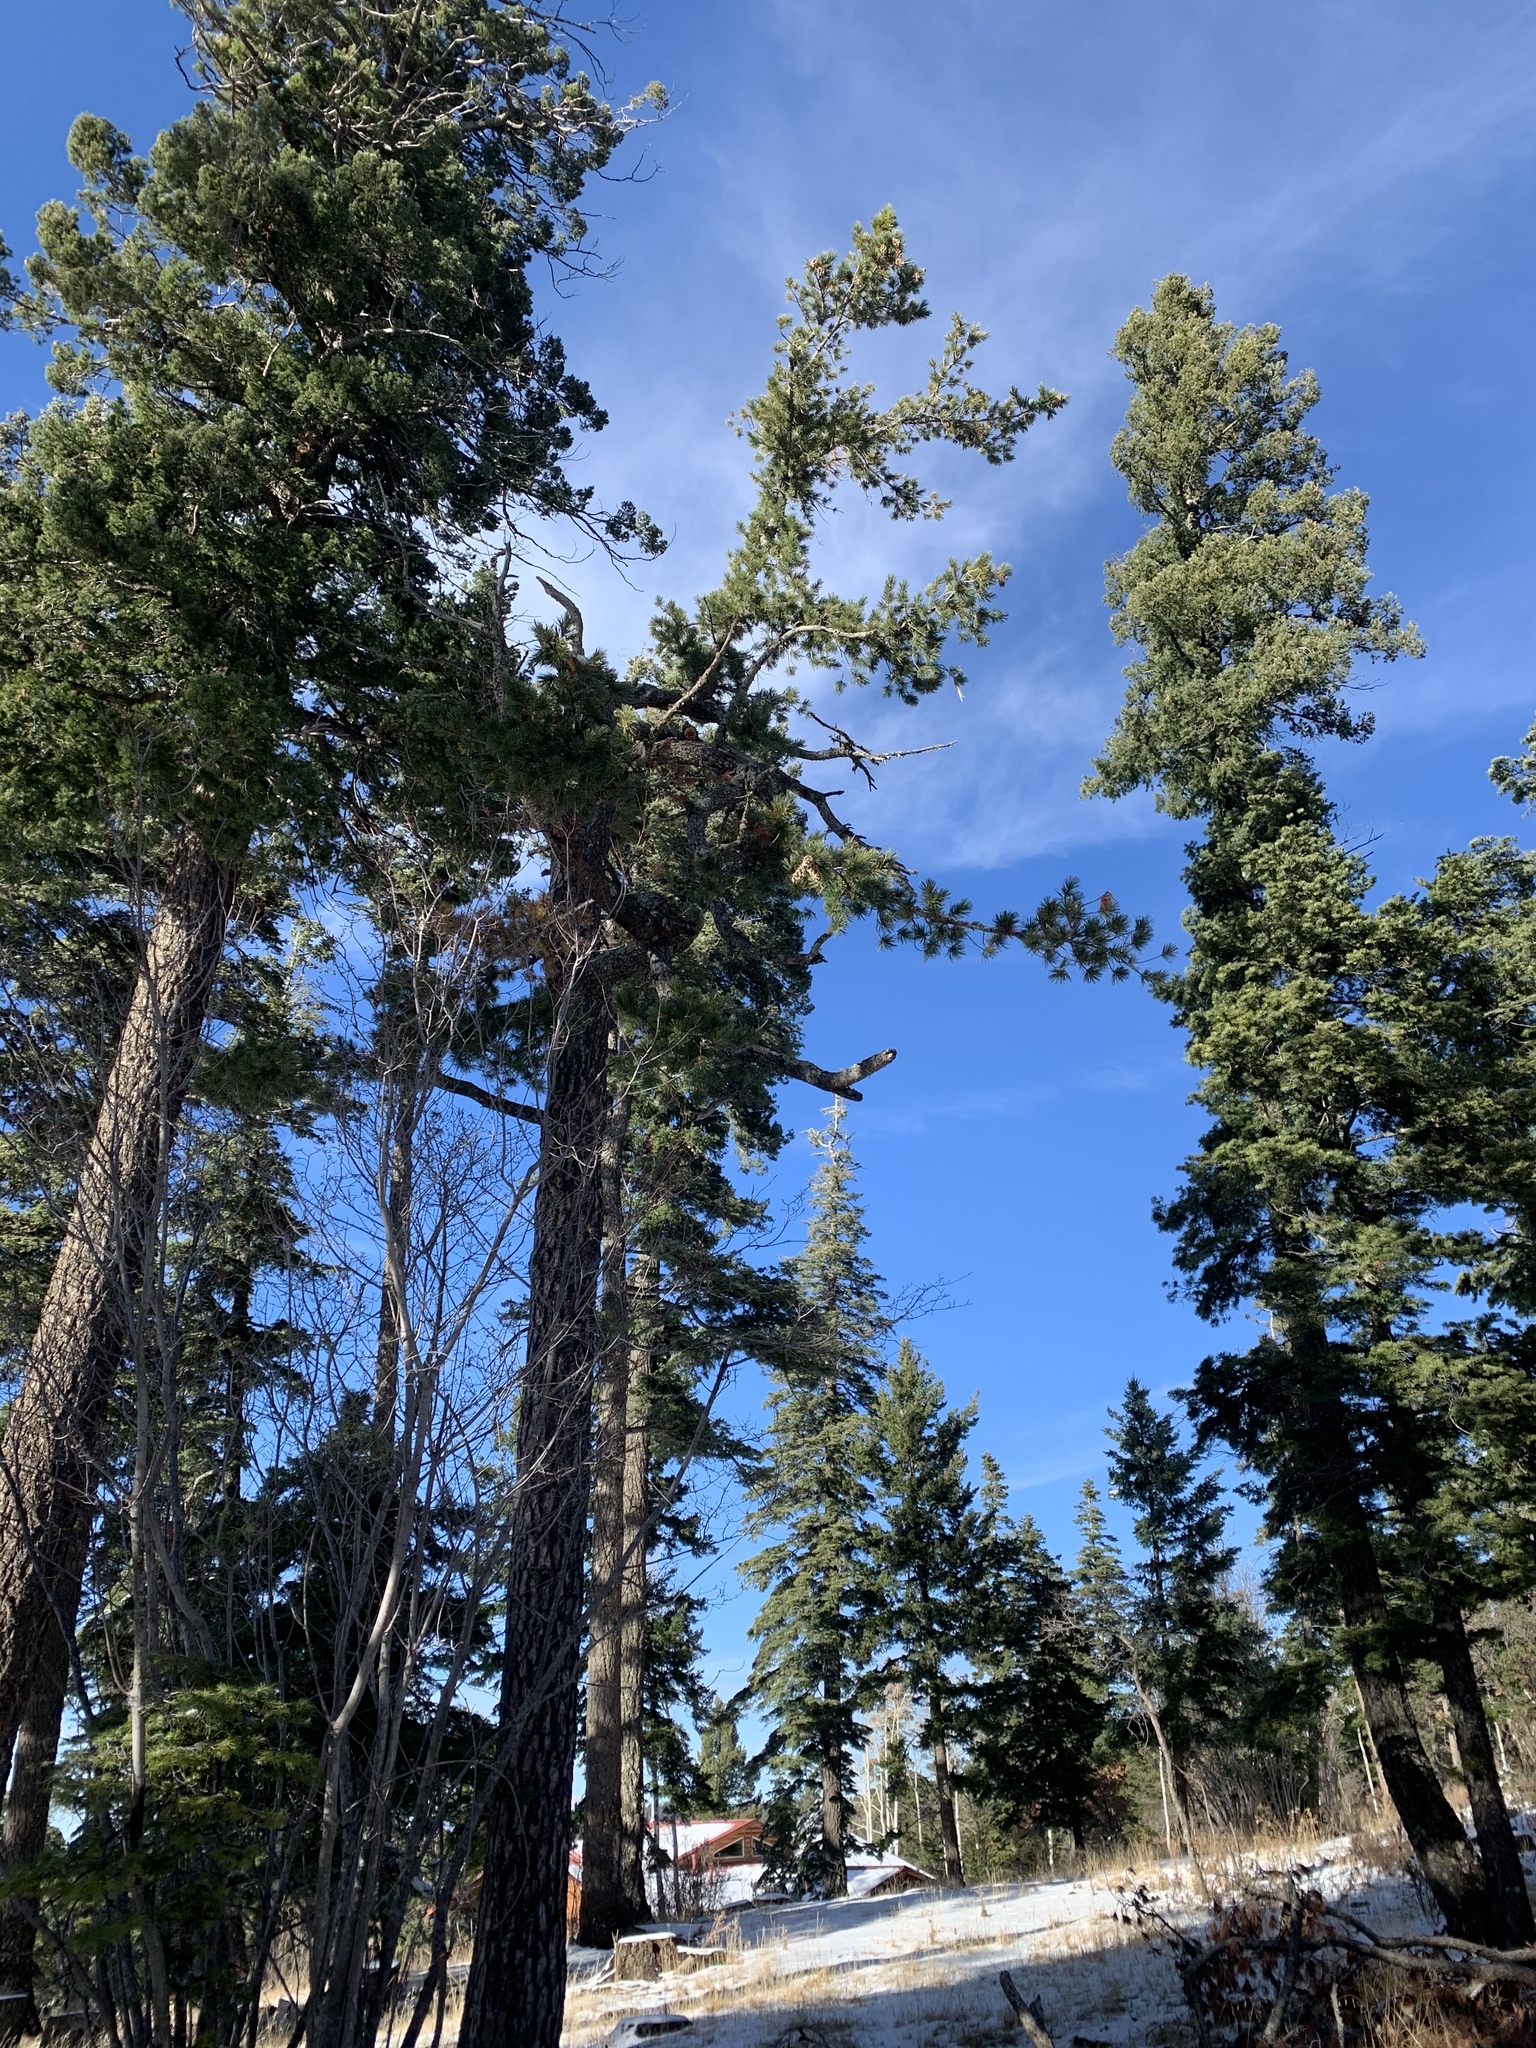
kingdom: Plantae
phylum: Tracheophyta
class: Pinopsida
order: Pinales
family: Pinaceae
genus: Pinus
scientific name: Pinus strobiformis
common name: Southwestern white pine
